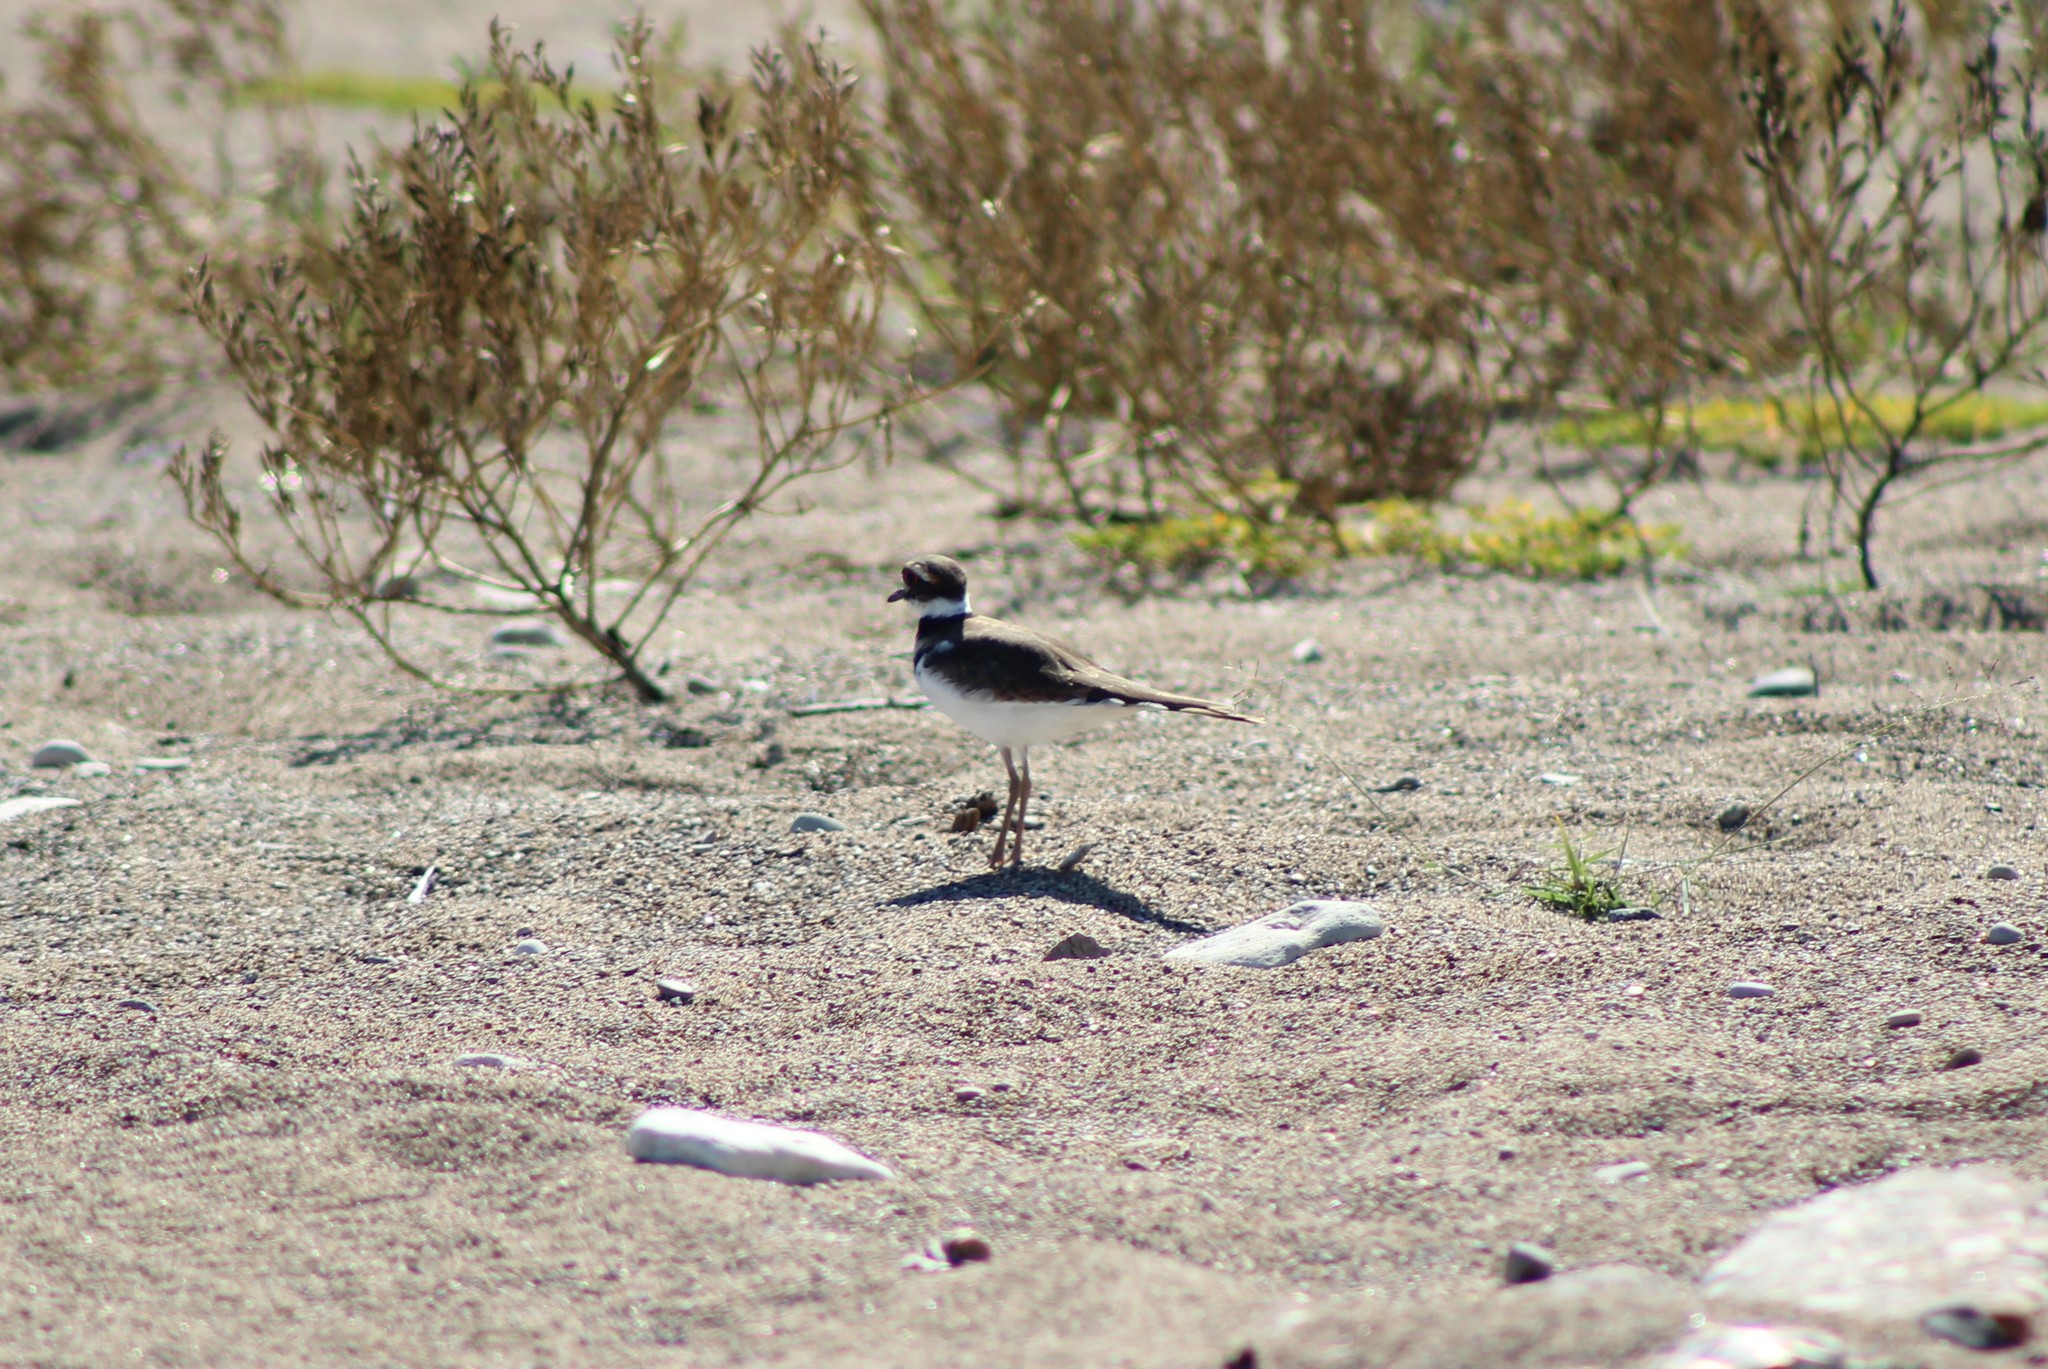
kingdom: Animalia
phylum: Chordata
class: Aves
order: Charadriiformes
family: Charadriidae
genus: Charadrius
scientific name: Charadrius vociferus
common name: Killdeer
